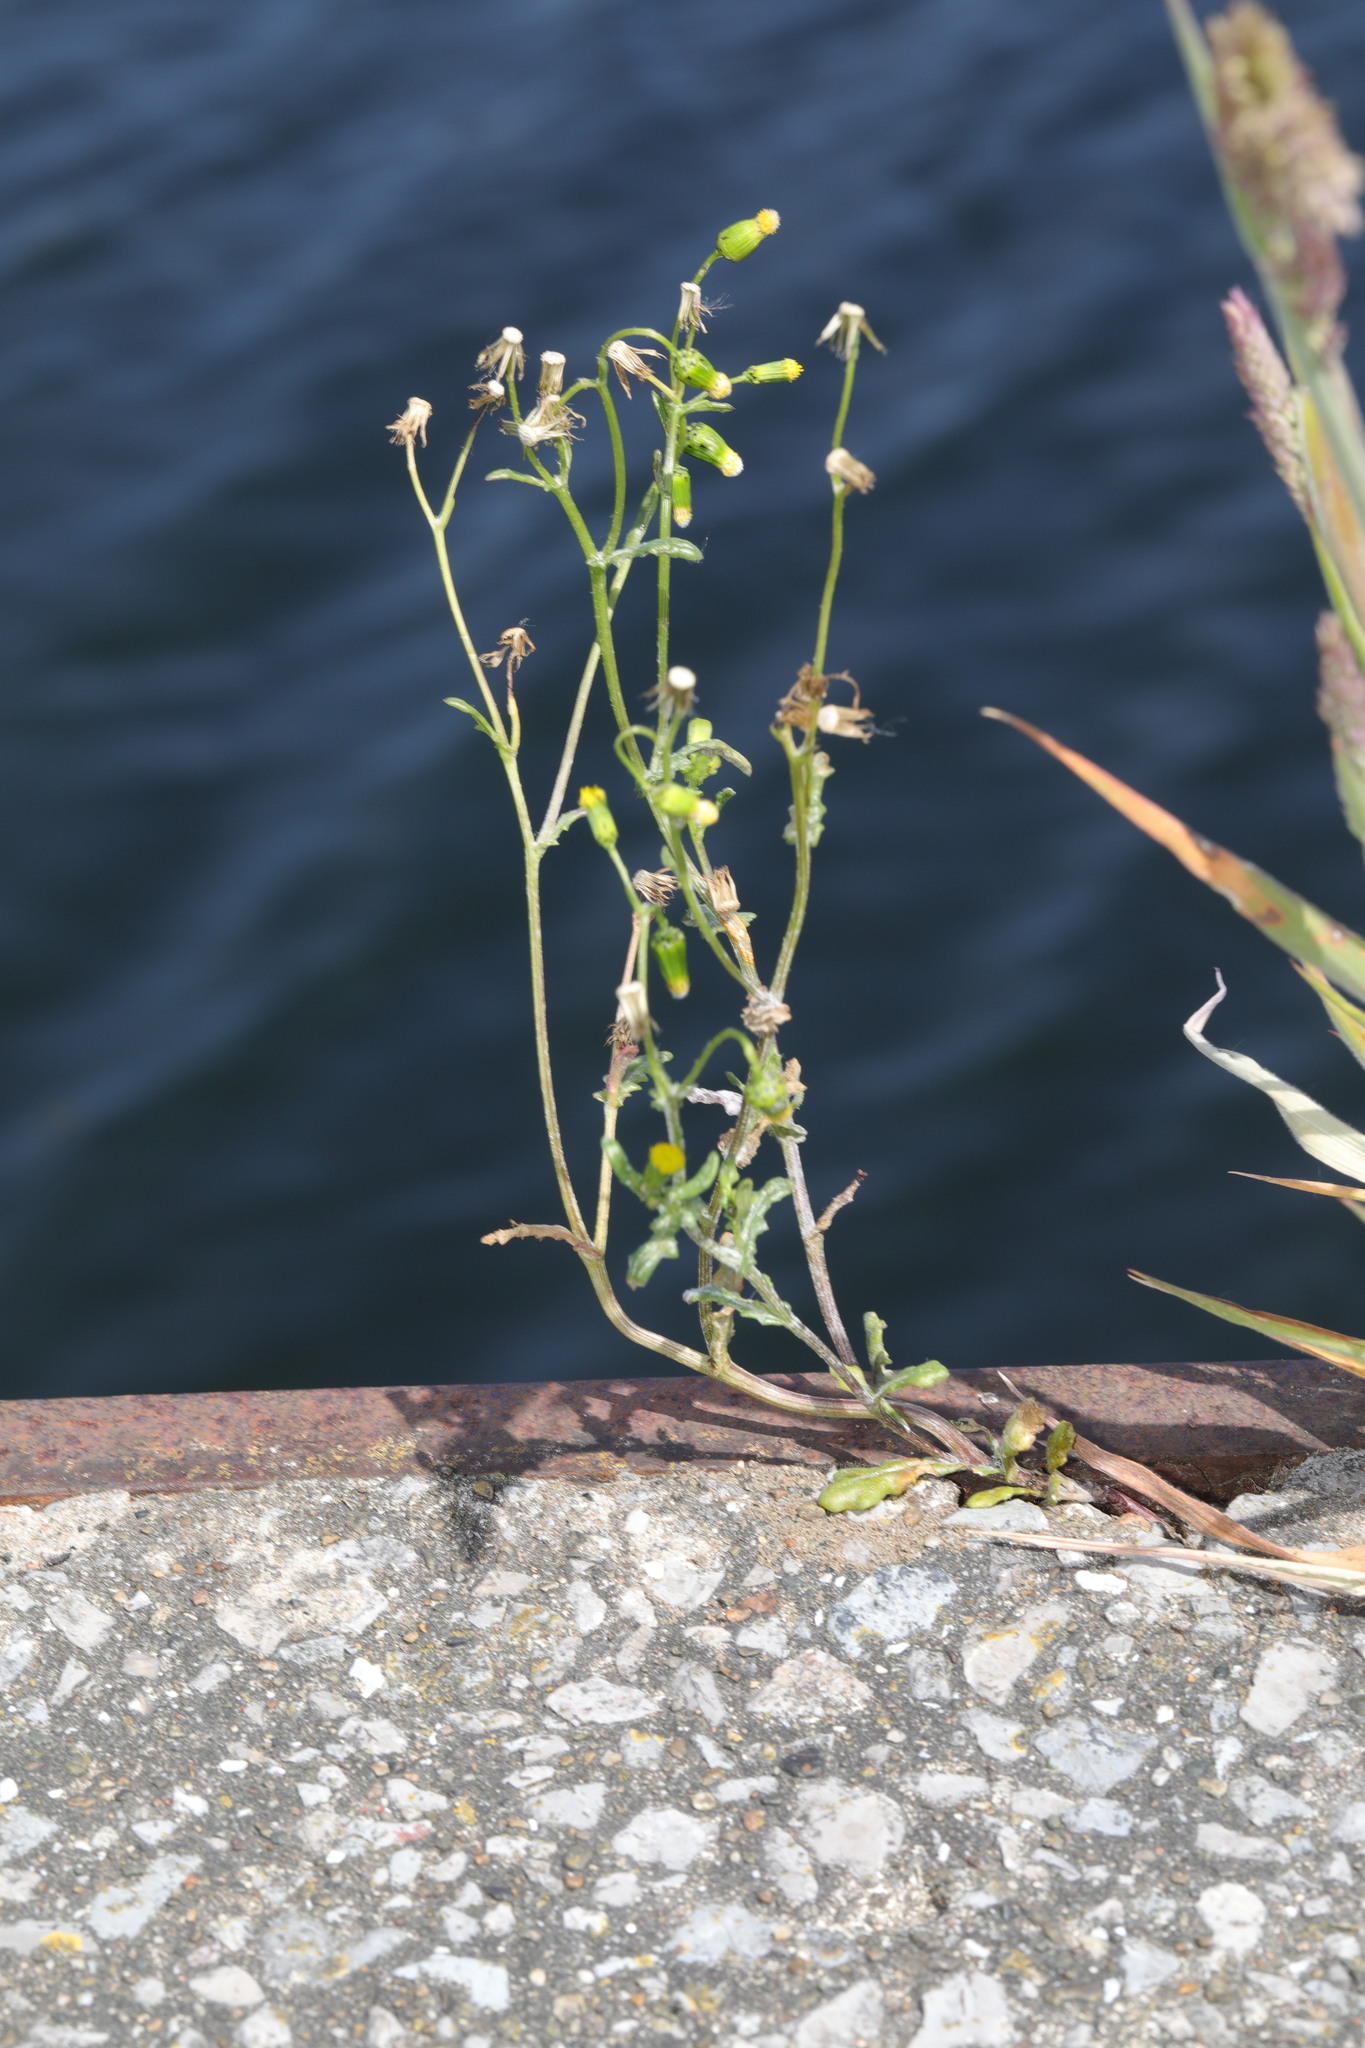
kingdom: Plantae
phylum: Tracheophyta
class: Magnoliopsida
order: Asterales
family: Asteraceae
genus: Senecio
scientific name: Senecio vulgaris
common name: Old-man-in-the-spring
